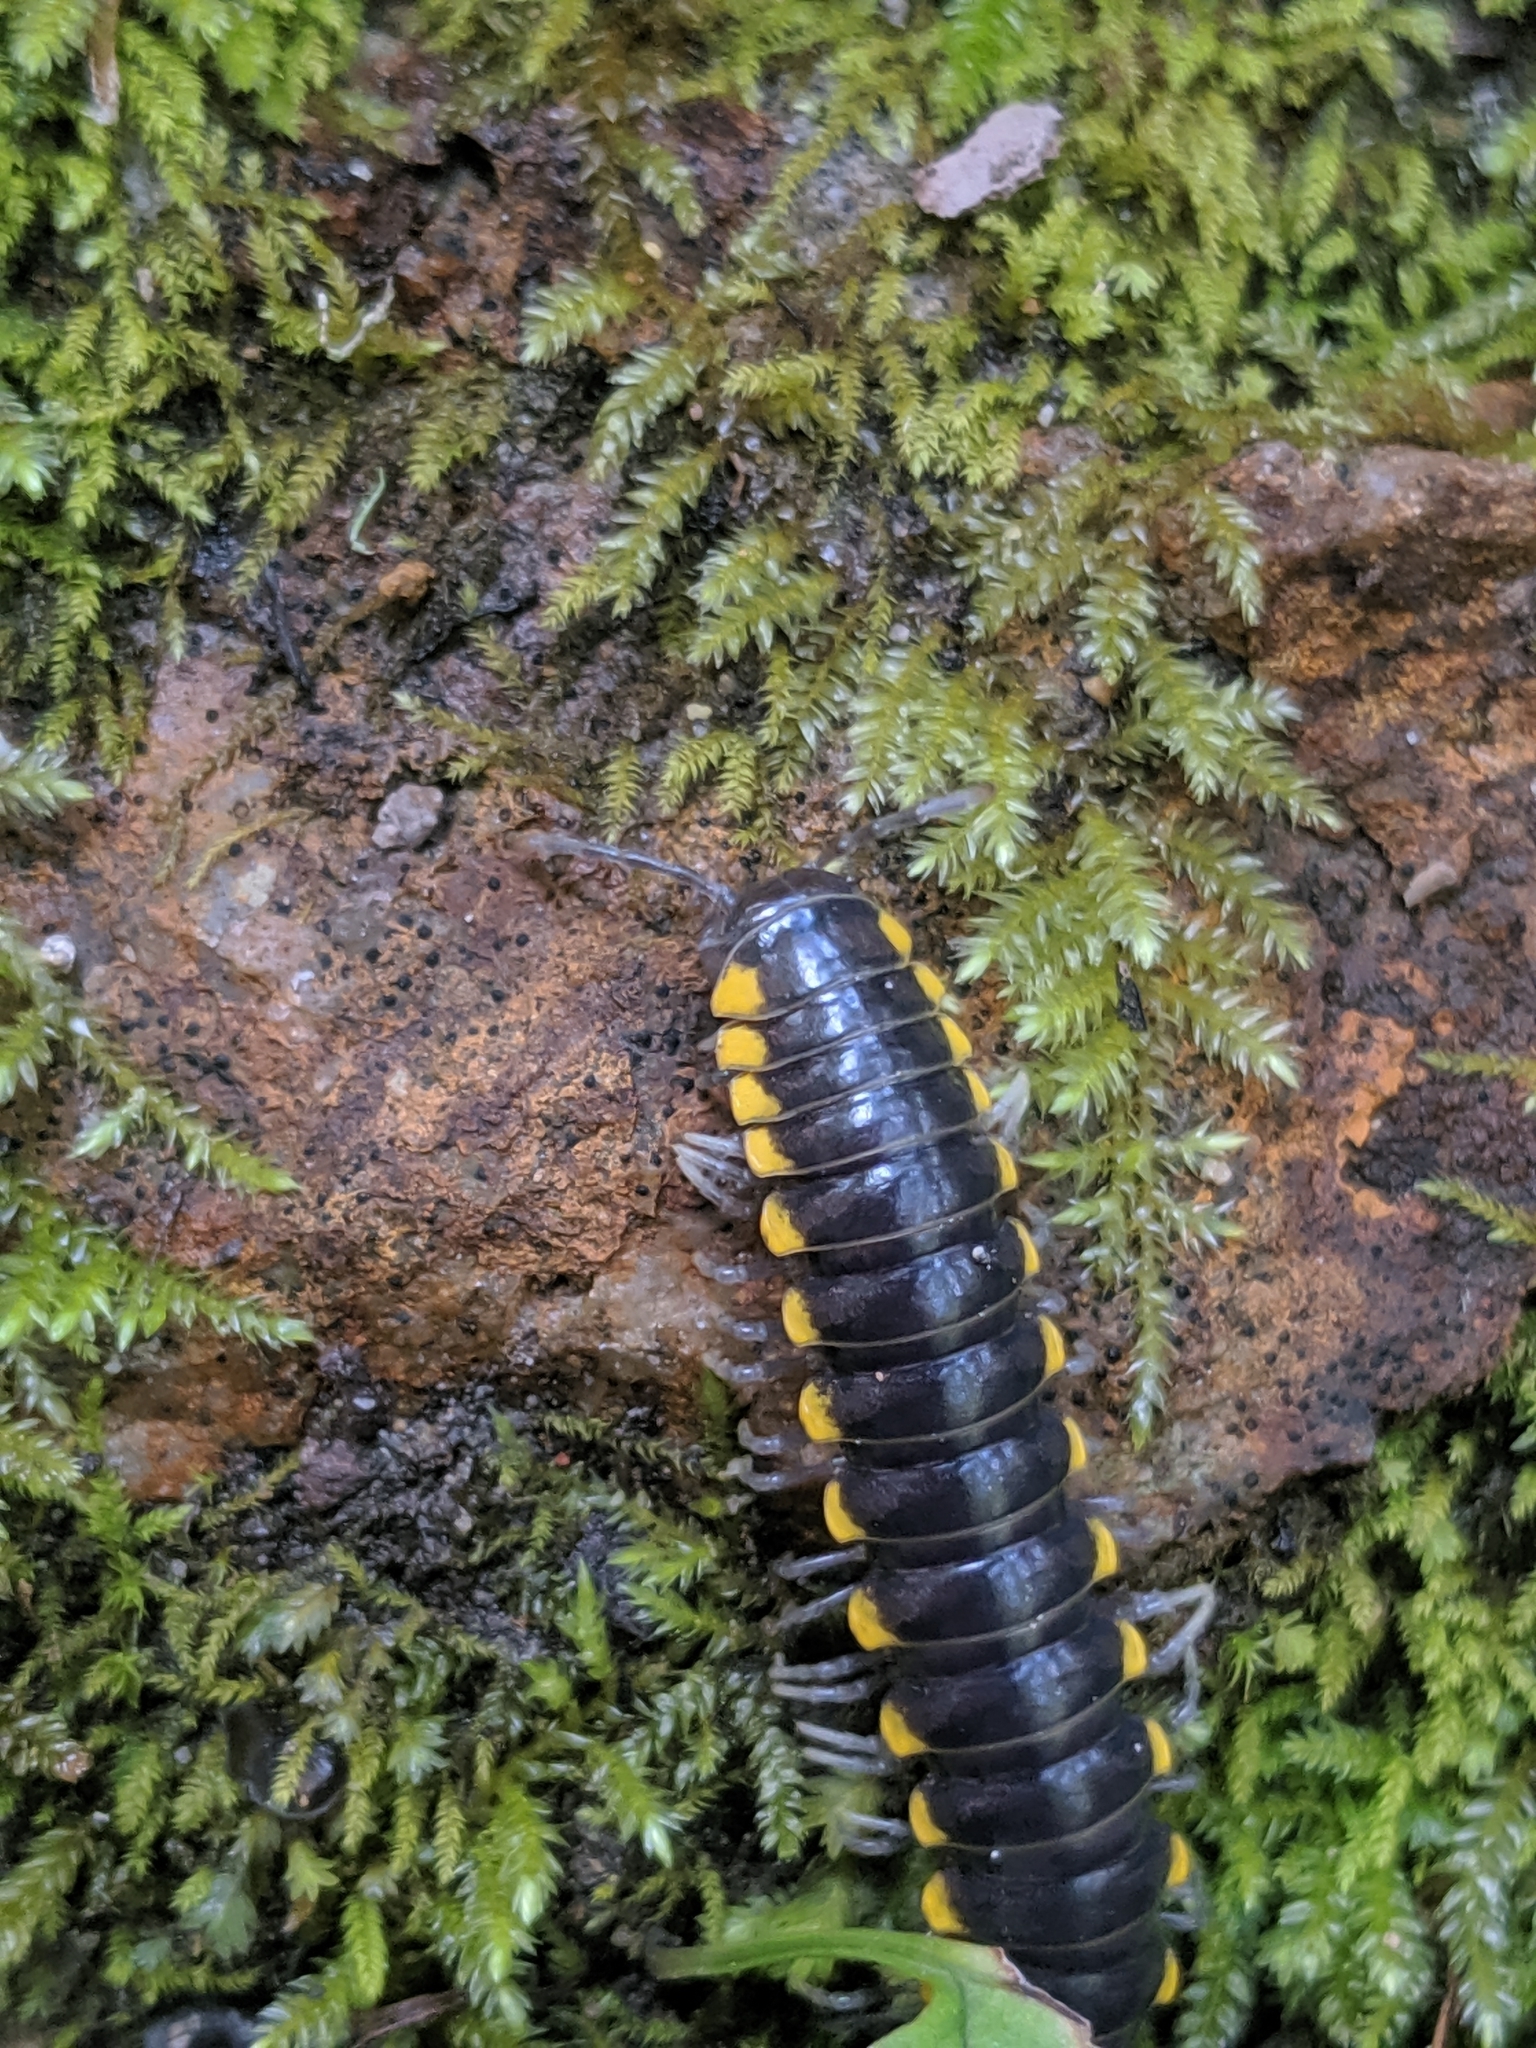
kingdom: Animalia
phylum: Arthropoda
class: Diplopoda
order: Polydesmida
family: Xystodesmidae
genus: Harpaphe
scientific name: Harpaphe haydeniana
